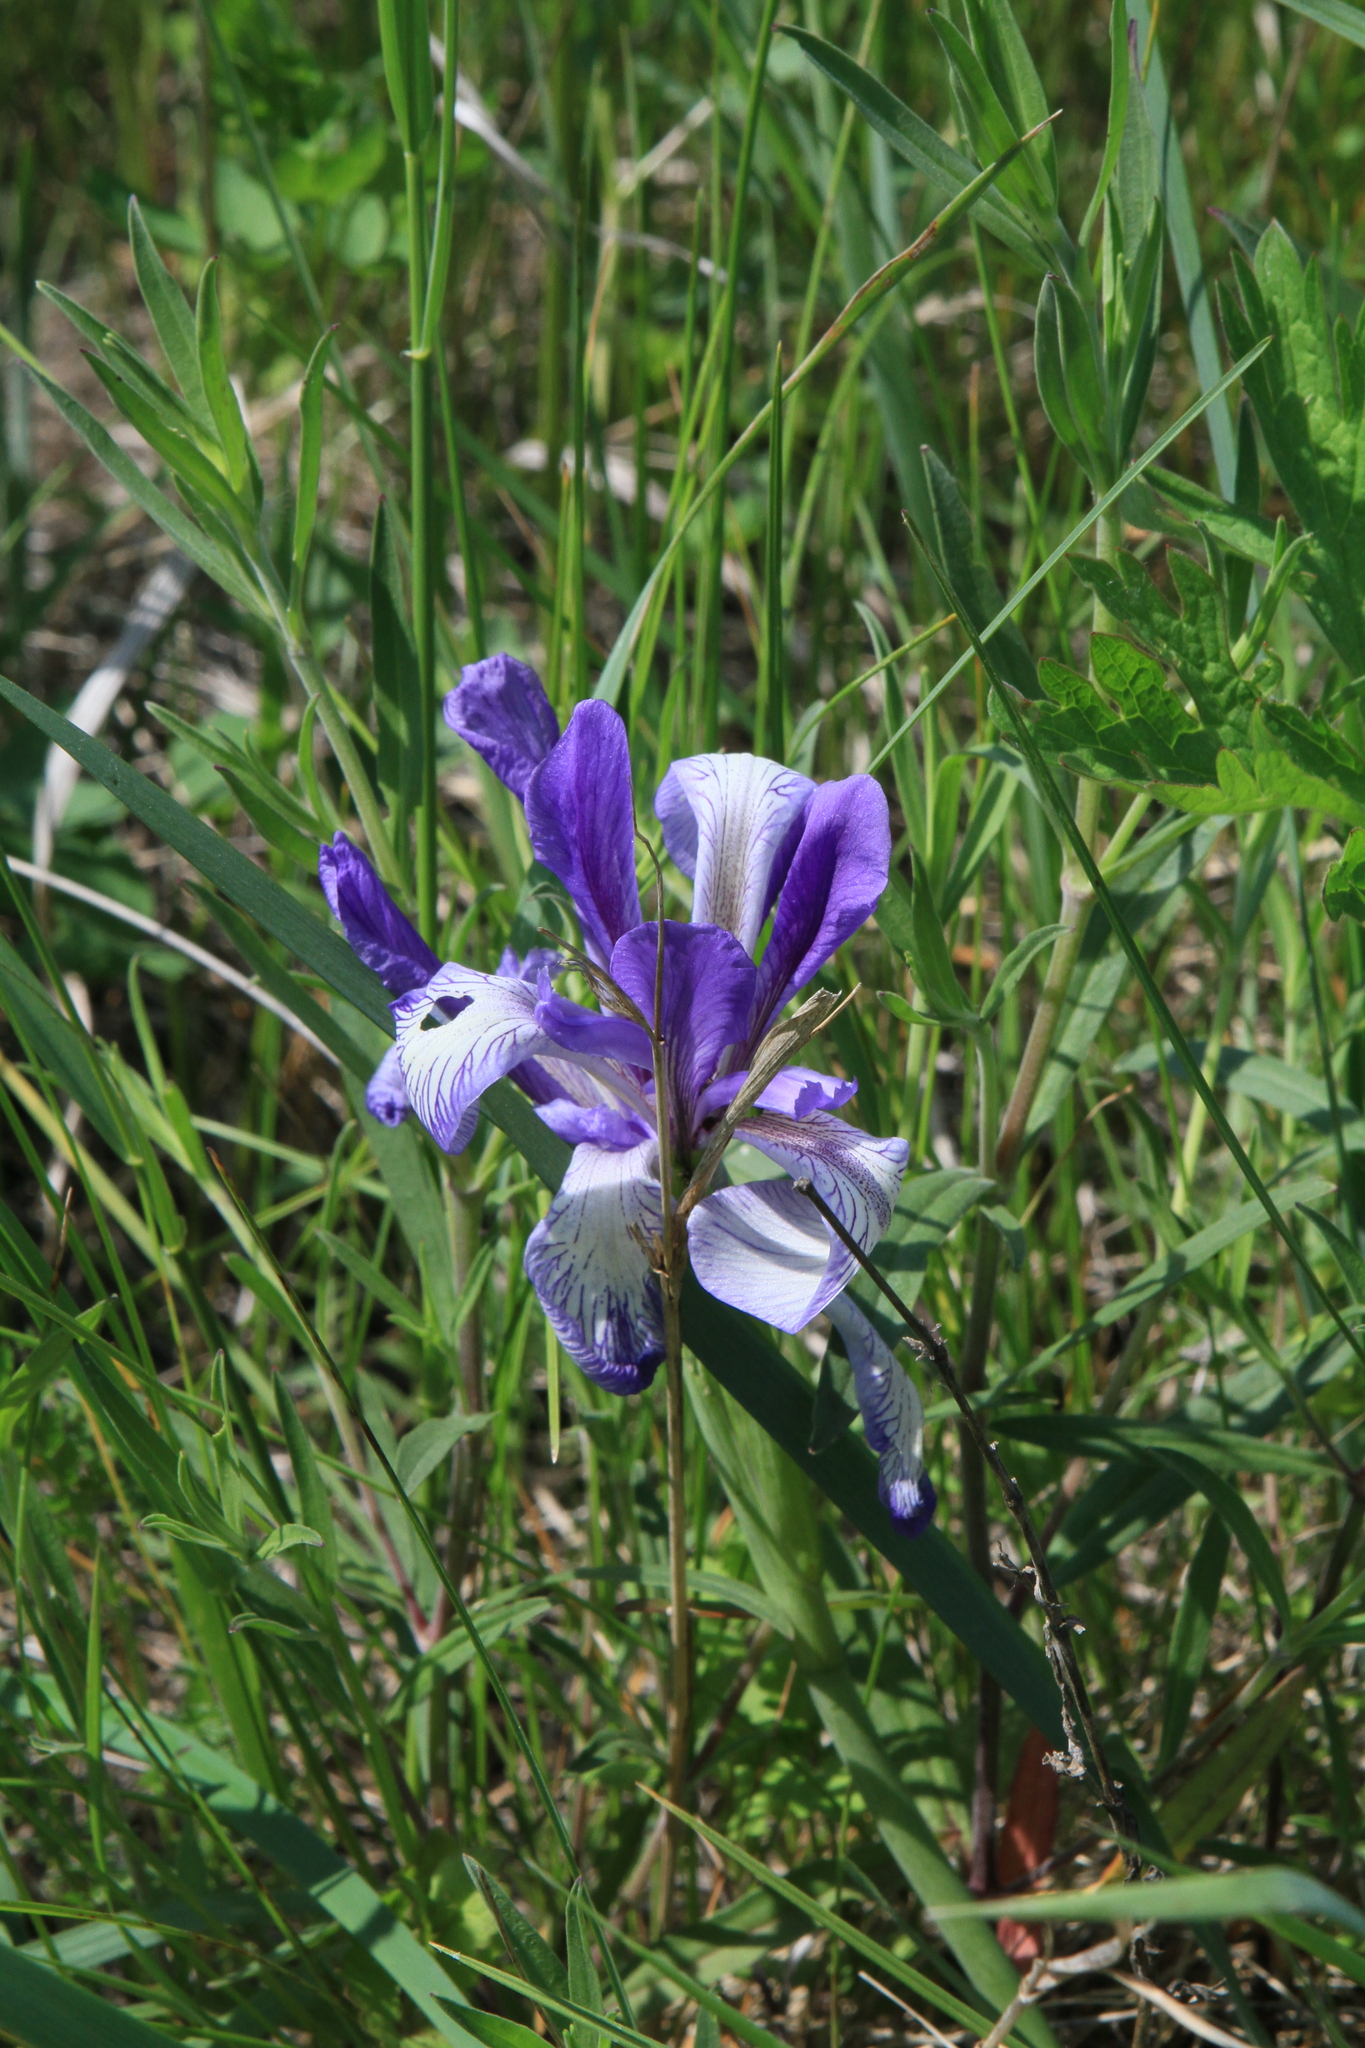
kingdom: Plantae
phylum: Tracheophyta
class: Liliopsida
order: Asparagales
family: Iridaceae
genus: Iris
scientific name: Iris lactea
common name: White-flower chinese iris
